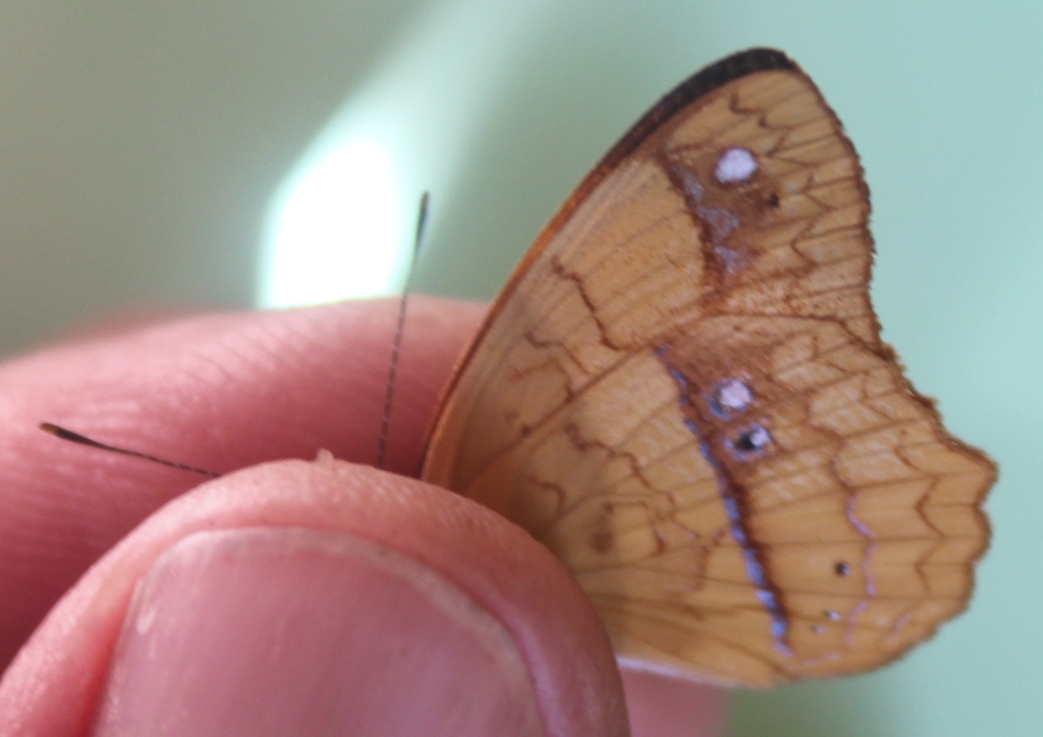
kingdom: Animalia
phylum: Arthropoda
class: Insecta
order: Lepidoptera
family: Nymphalidae
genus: Nica
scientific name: Nica flavilla
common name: Mandarin nica
